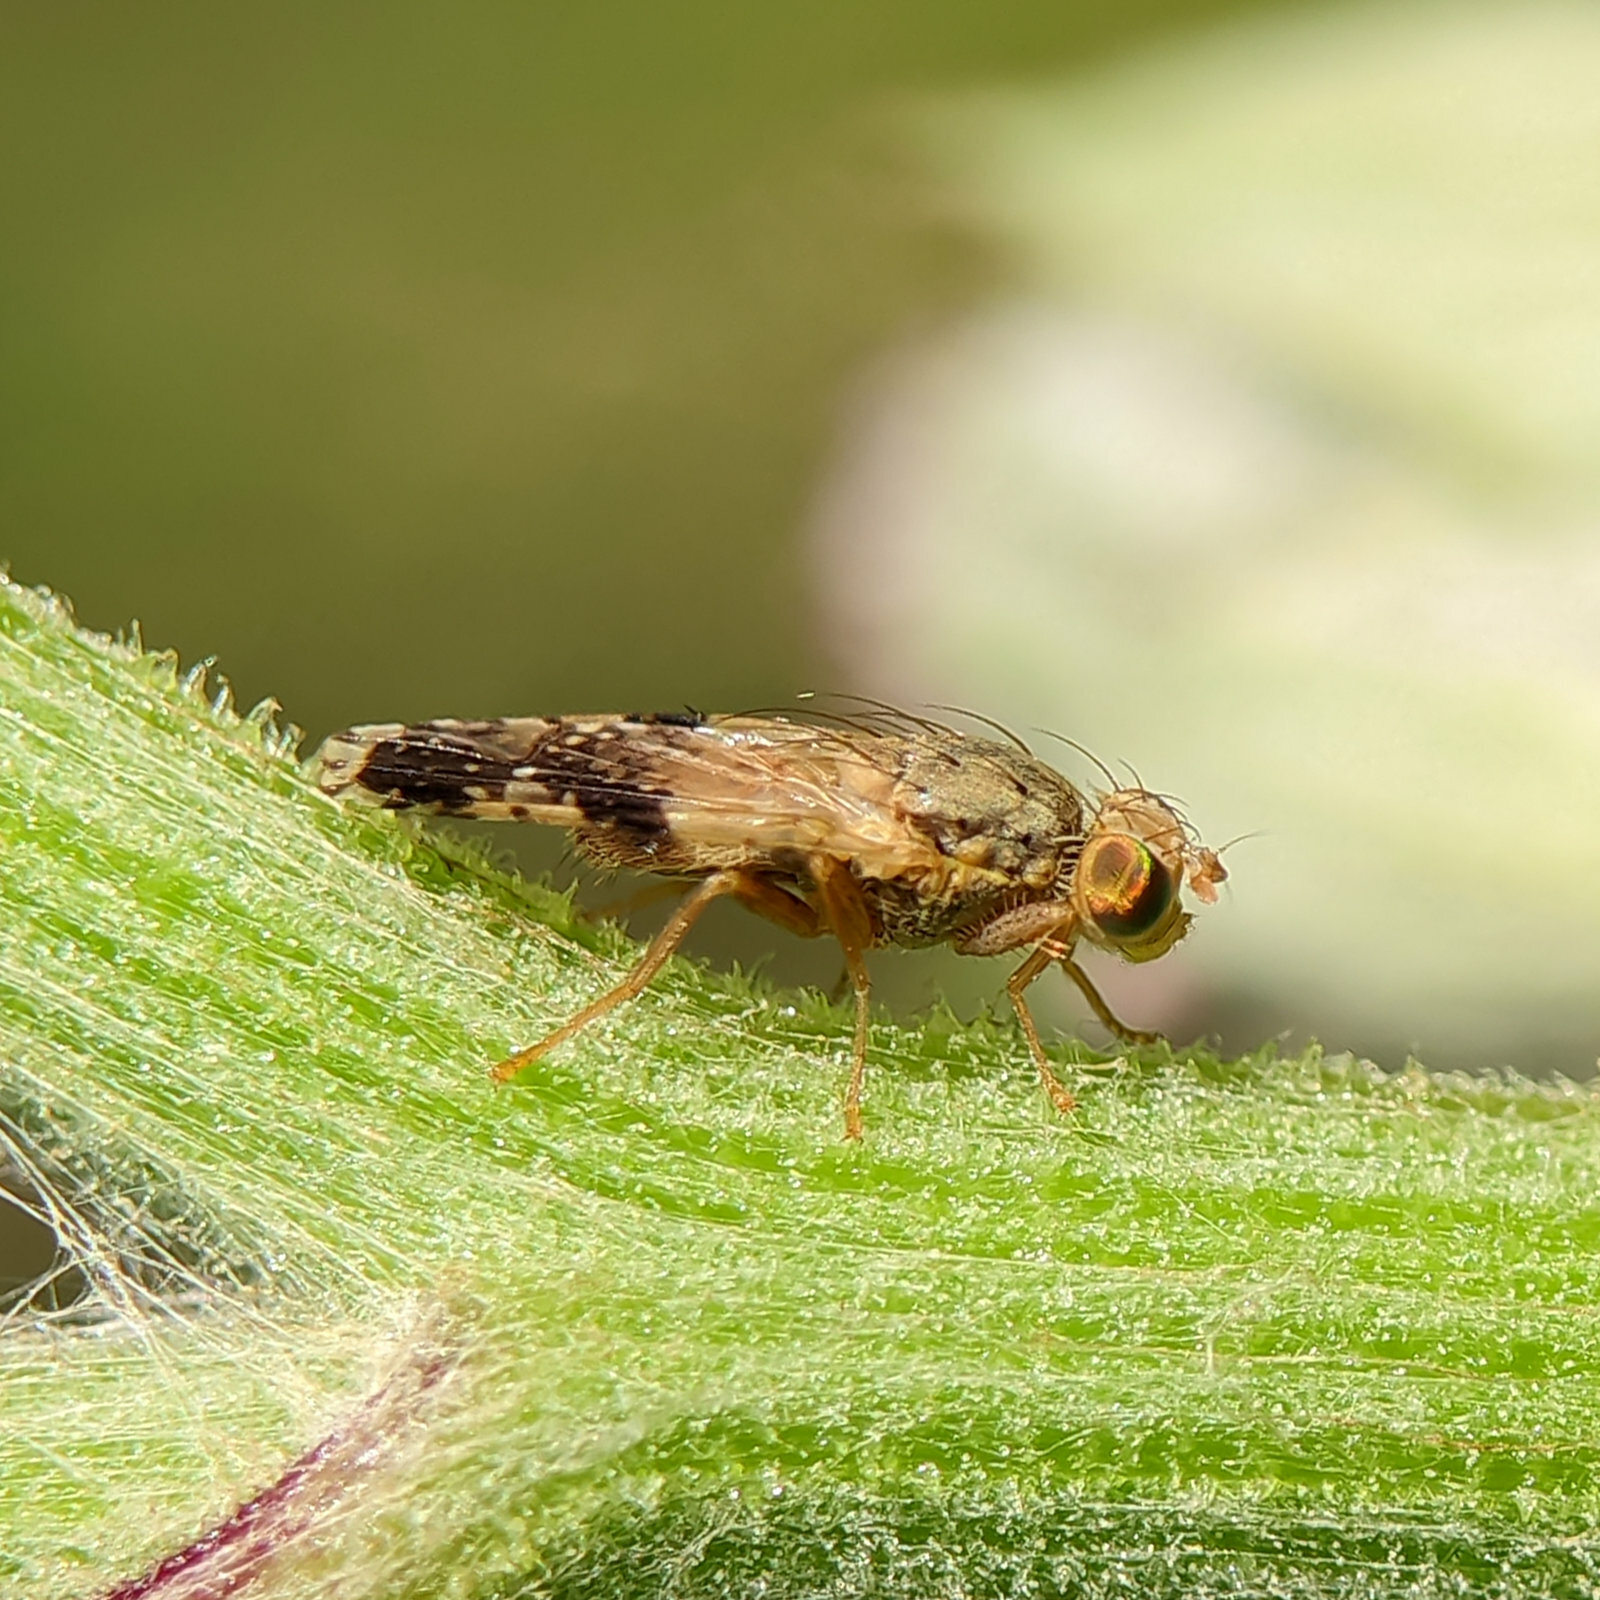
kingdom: Animalia
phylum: Arthropoda
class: Insecta
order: Diptera
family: Tephritidae
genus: Tephritis
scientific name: Tephritis bardanae
